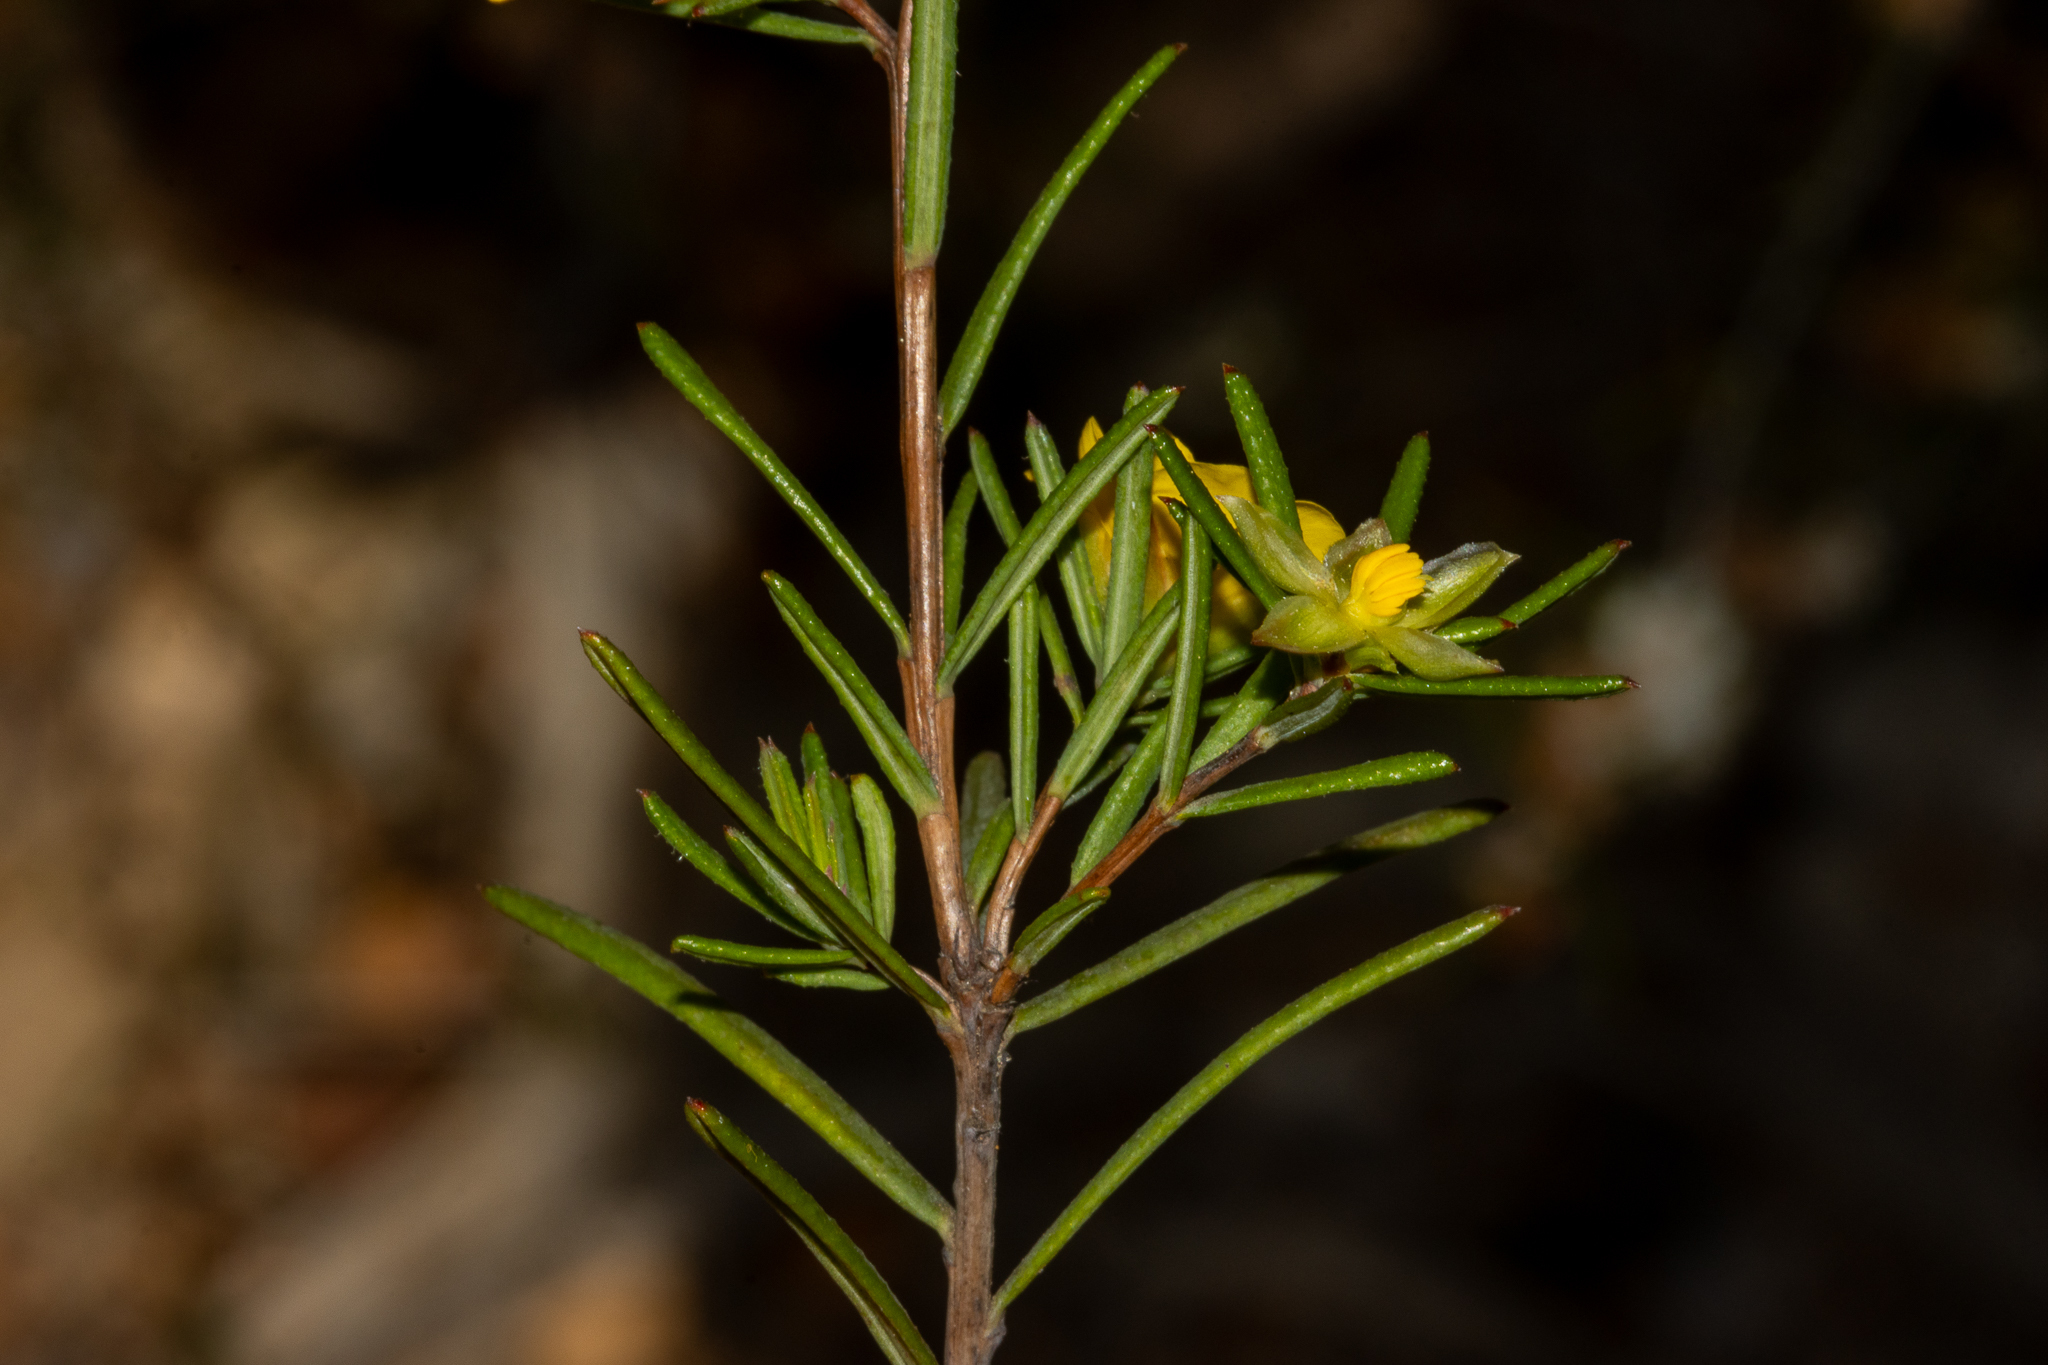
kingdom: Plantae
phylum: Tracheophyta
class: Magnoliopsida
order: Dilleniales
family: Dilleniaceae
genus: Hibbertia
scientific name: Hibbertia aurea
